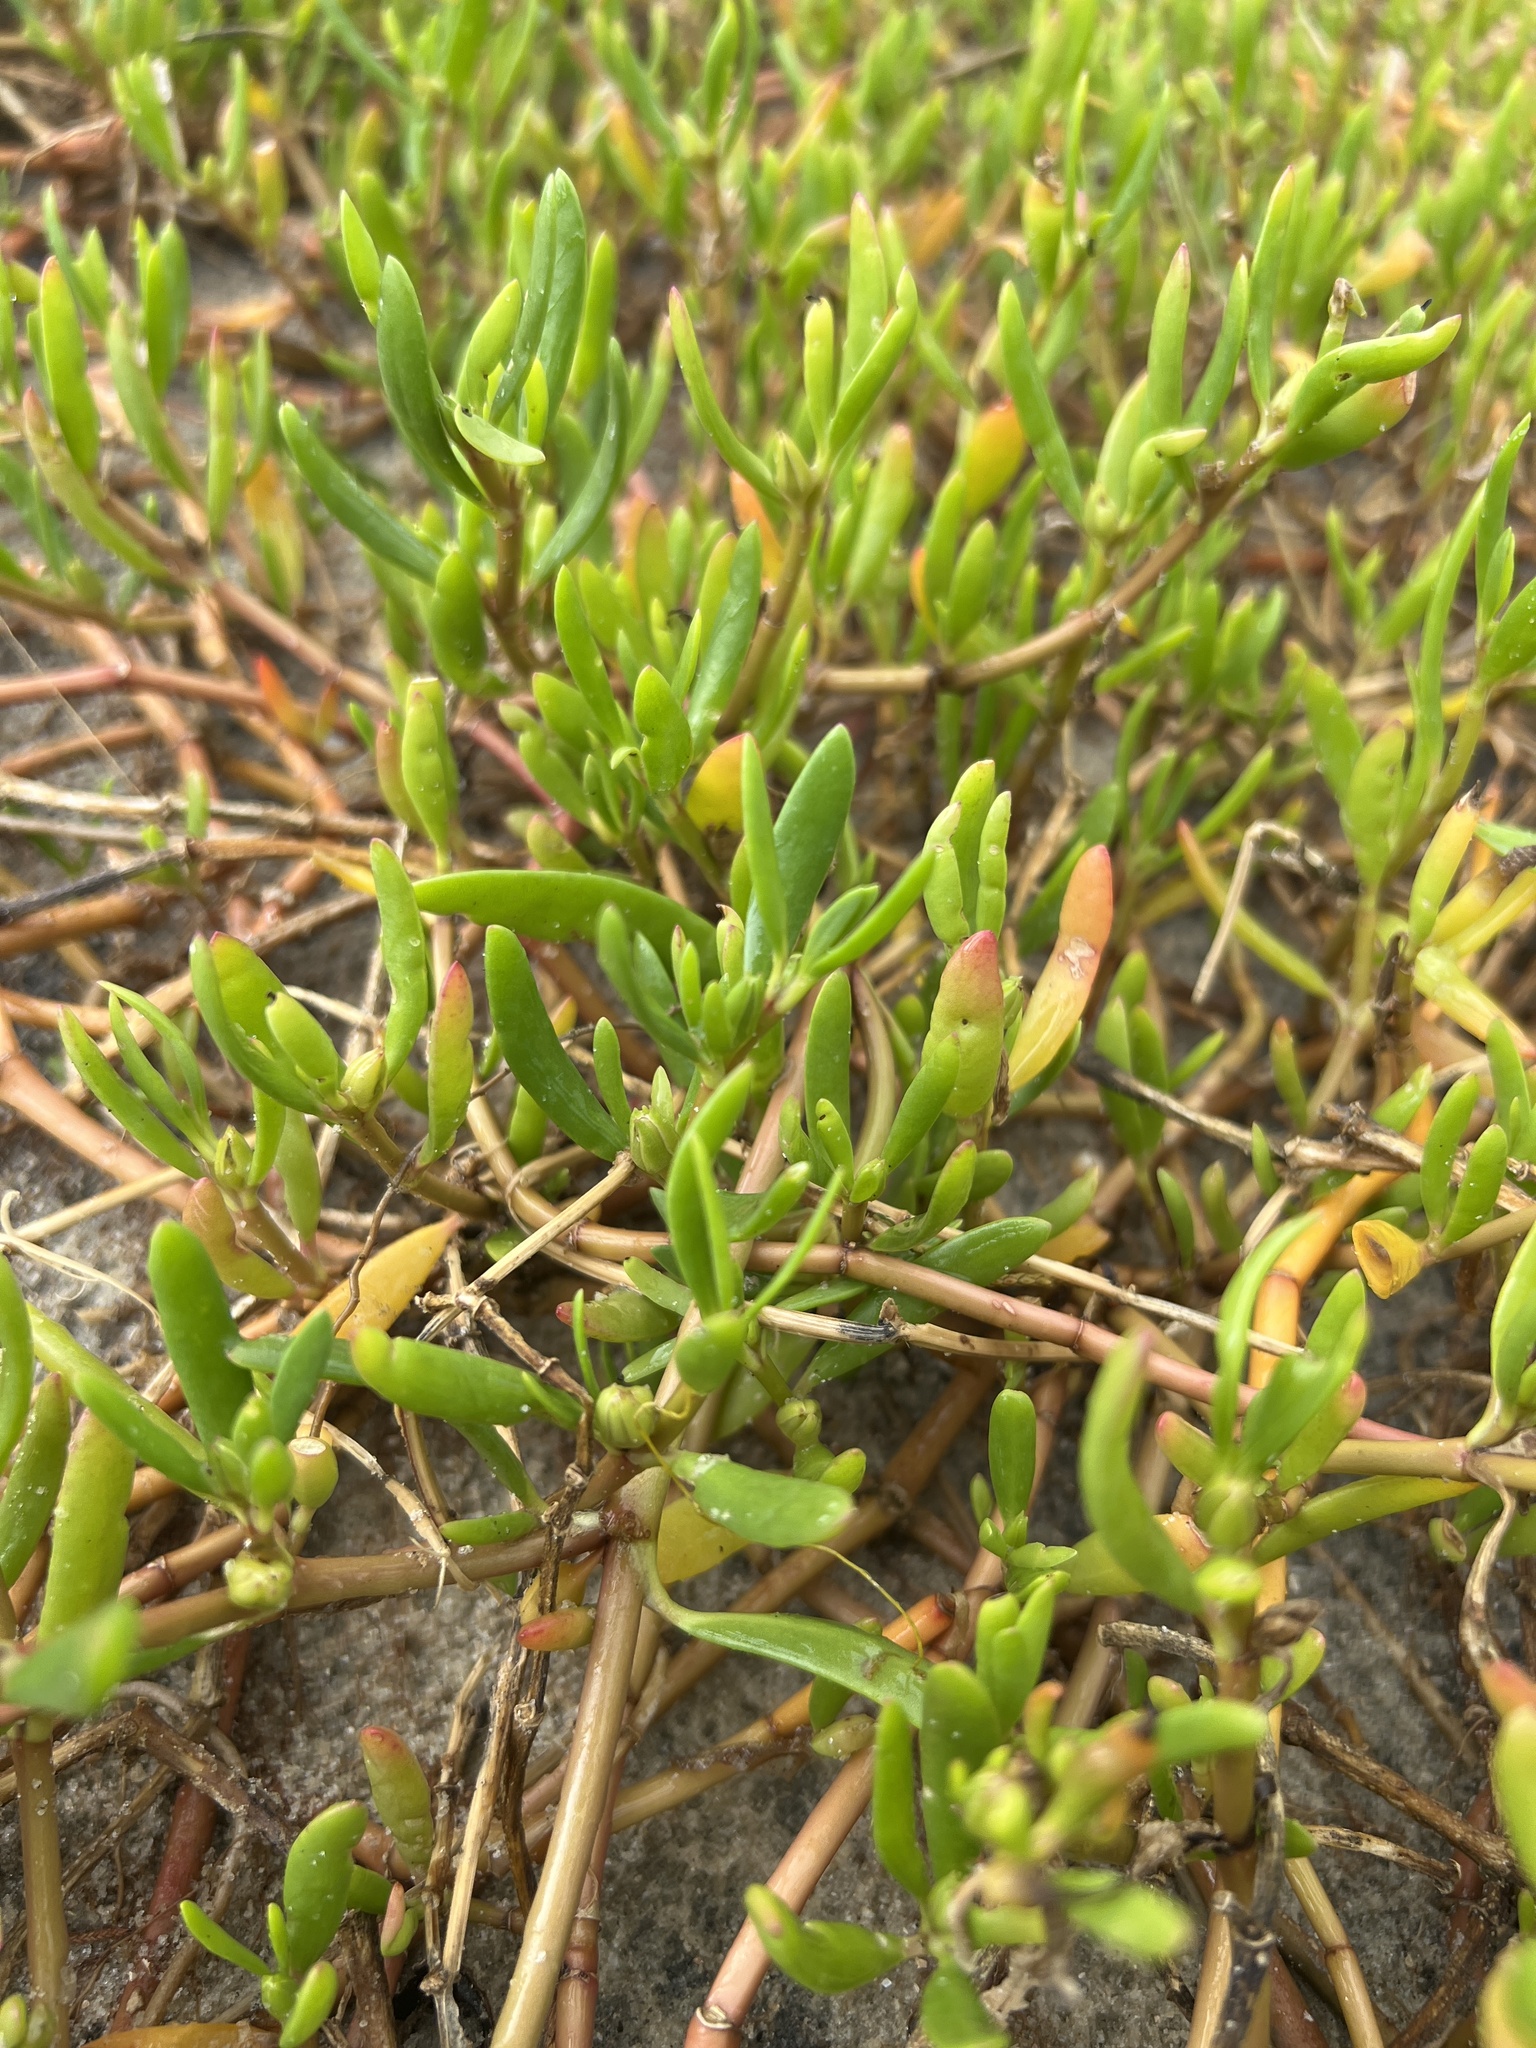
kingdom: Plantae
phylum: Tracheophyta
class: Magnoliopsida
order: Caryophyllales
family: Aizoaceae
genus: Sesuvium
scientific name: Sesuvium portulacastrum
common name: Sea-purslane
